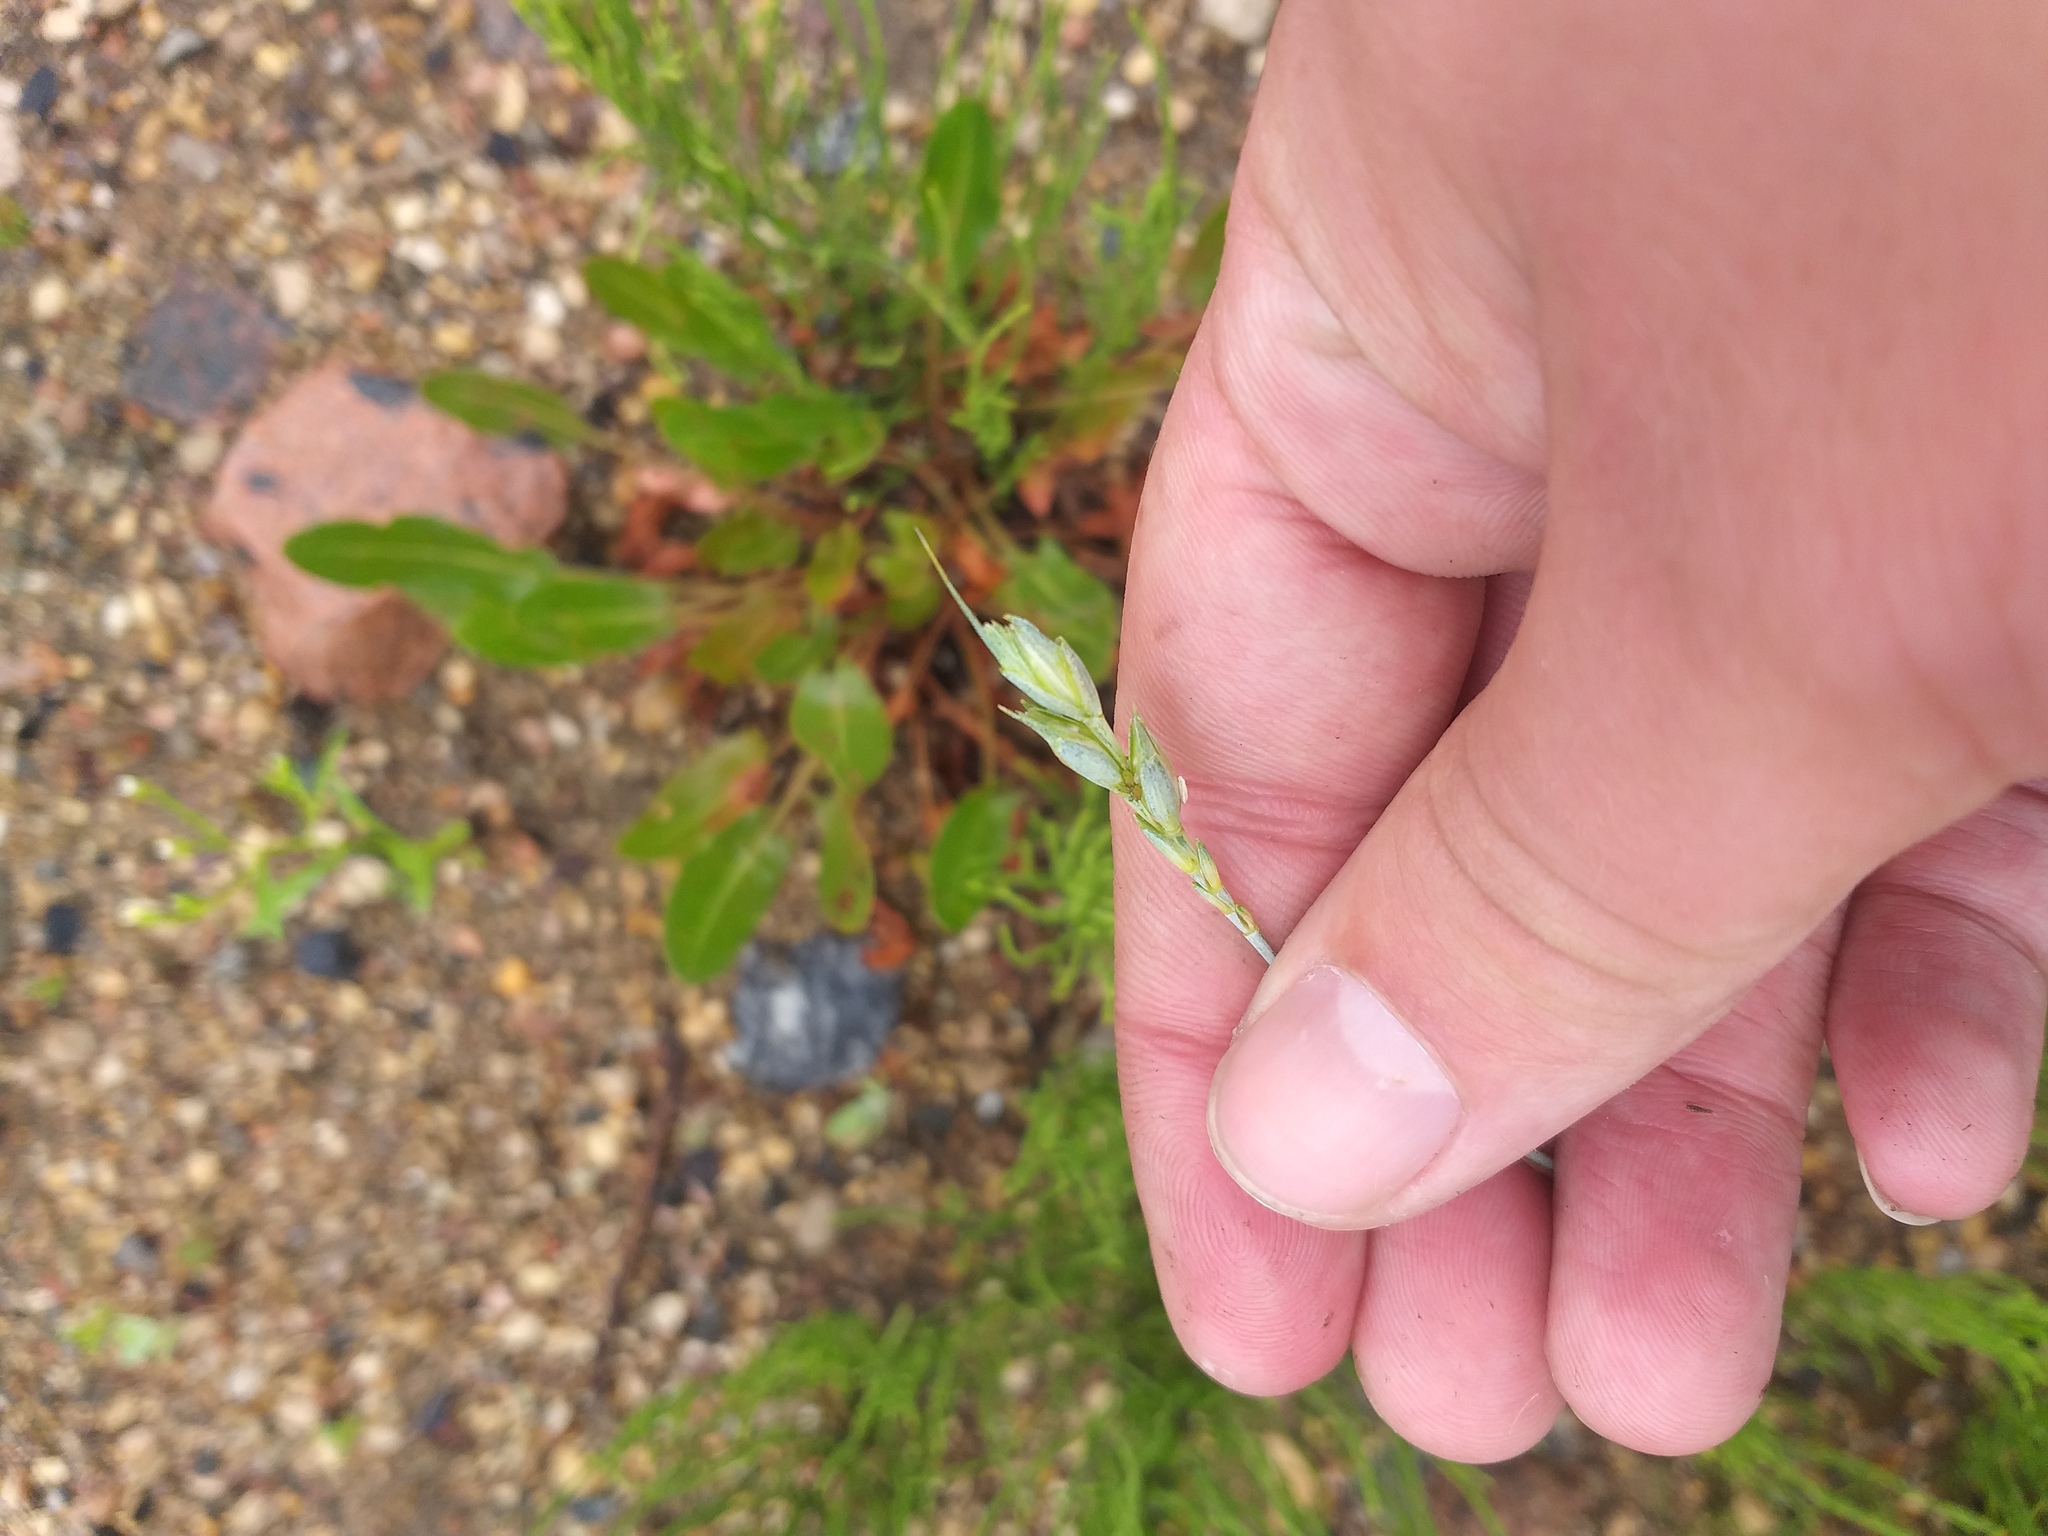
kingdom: Plantae
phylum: Tracheophyta
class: Liliopsida
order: Poales
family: Poaceae
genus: Triticum
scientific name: Triticum aestivum
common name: Common wheat
